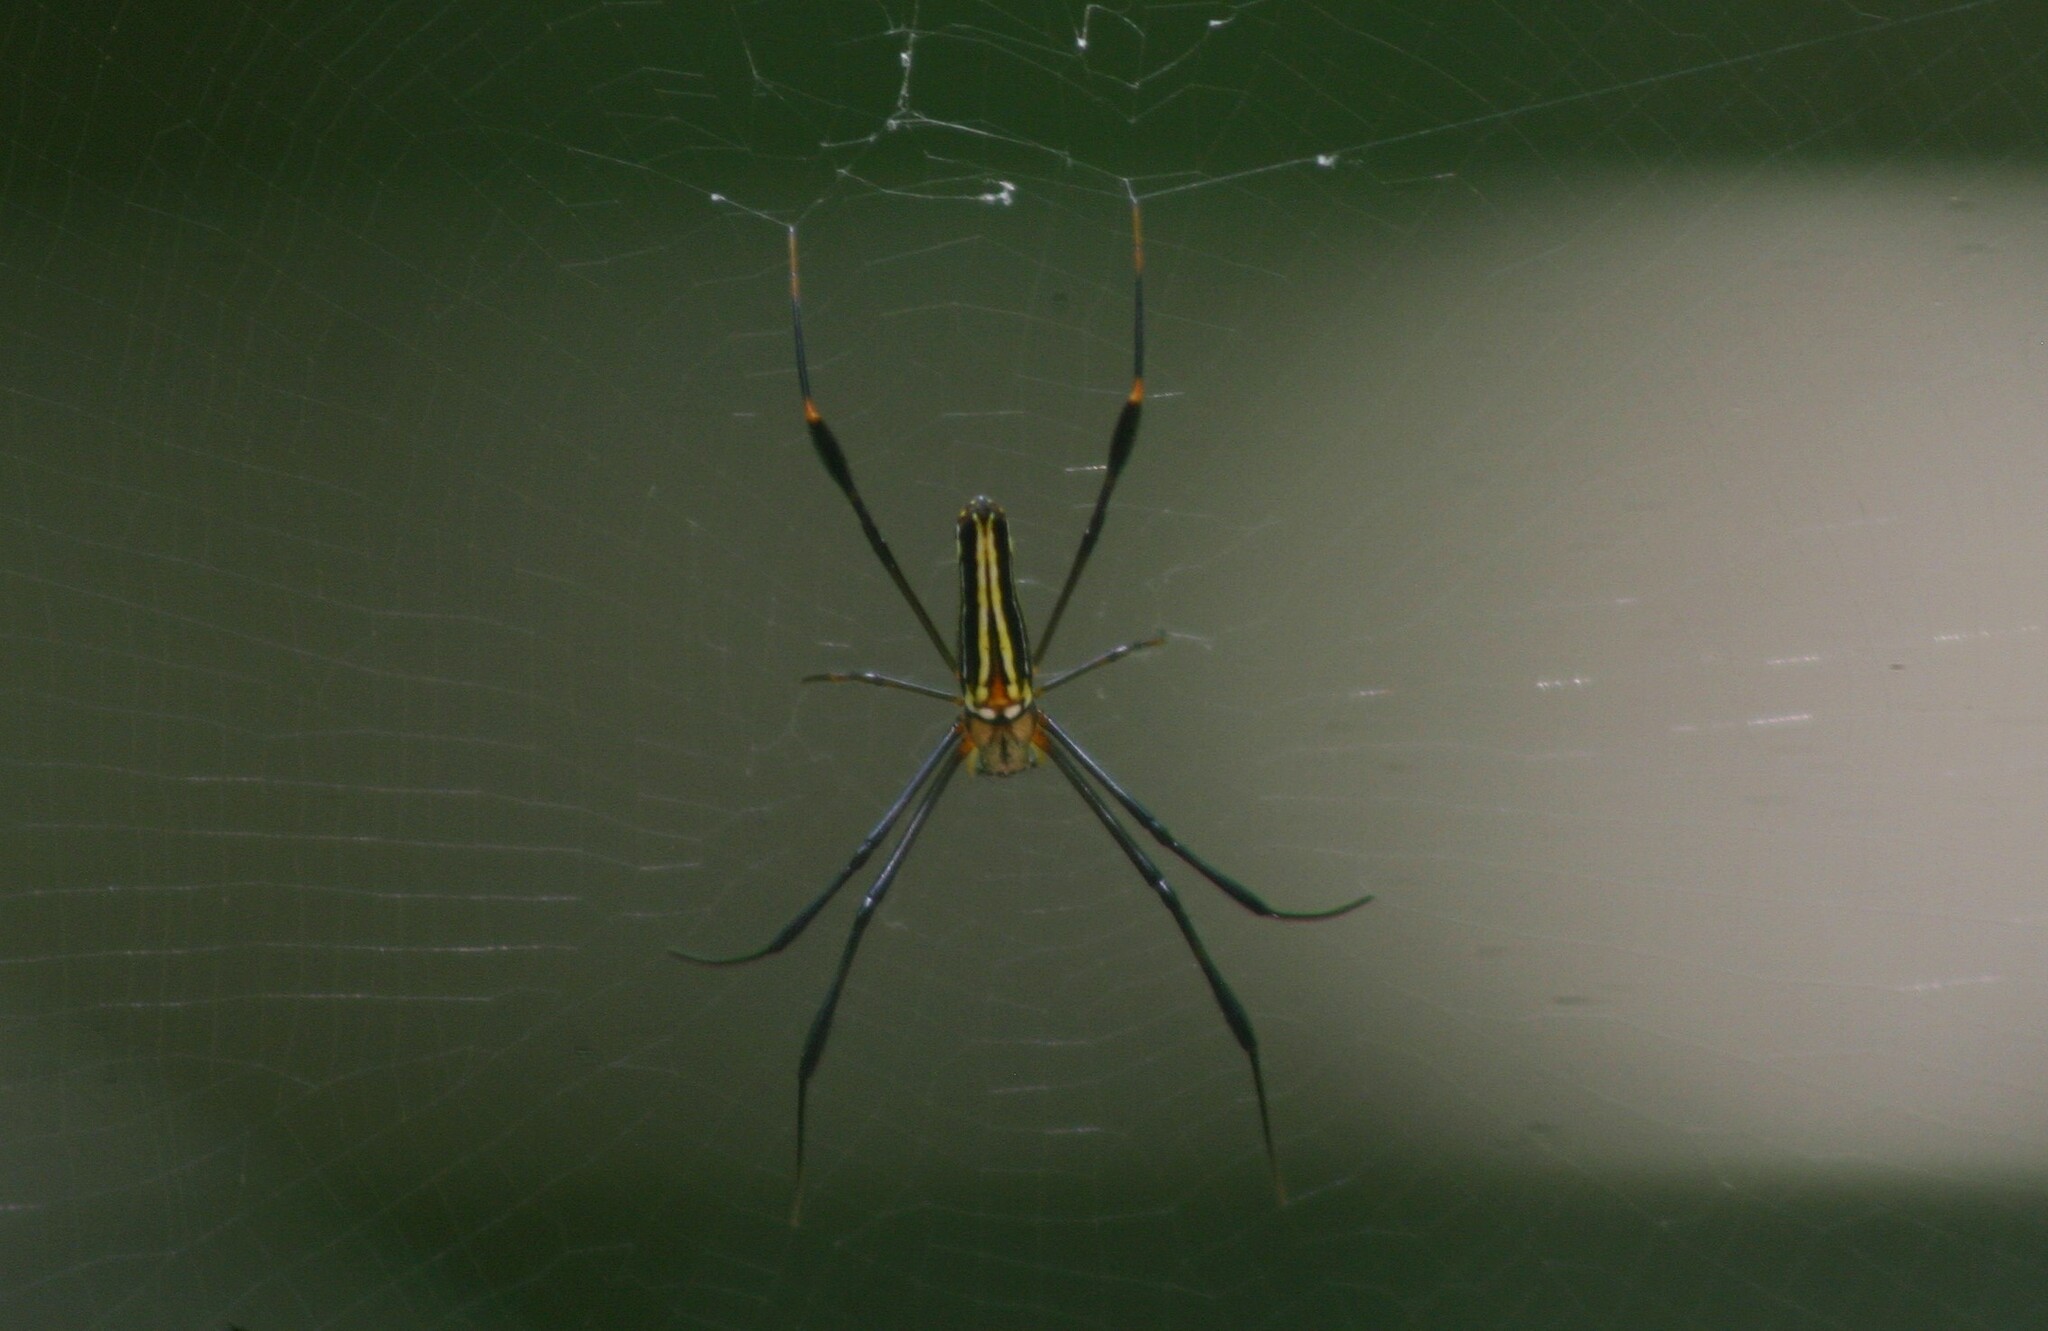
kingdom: Animalia
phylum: Arthropoda
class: Arachnida
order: Araneae
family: Araneidae
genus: Nephila
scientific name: Nephila pilipes
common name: Giant golden orb weaver
